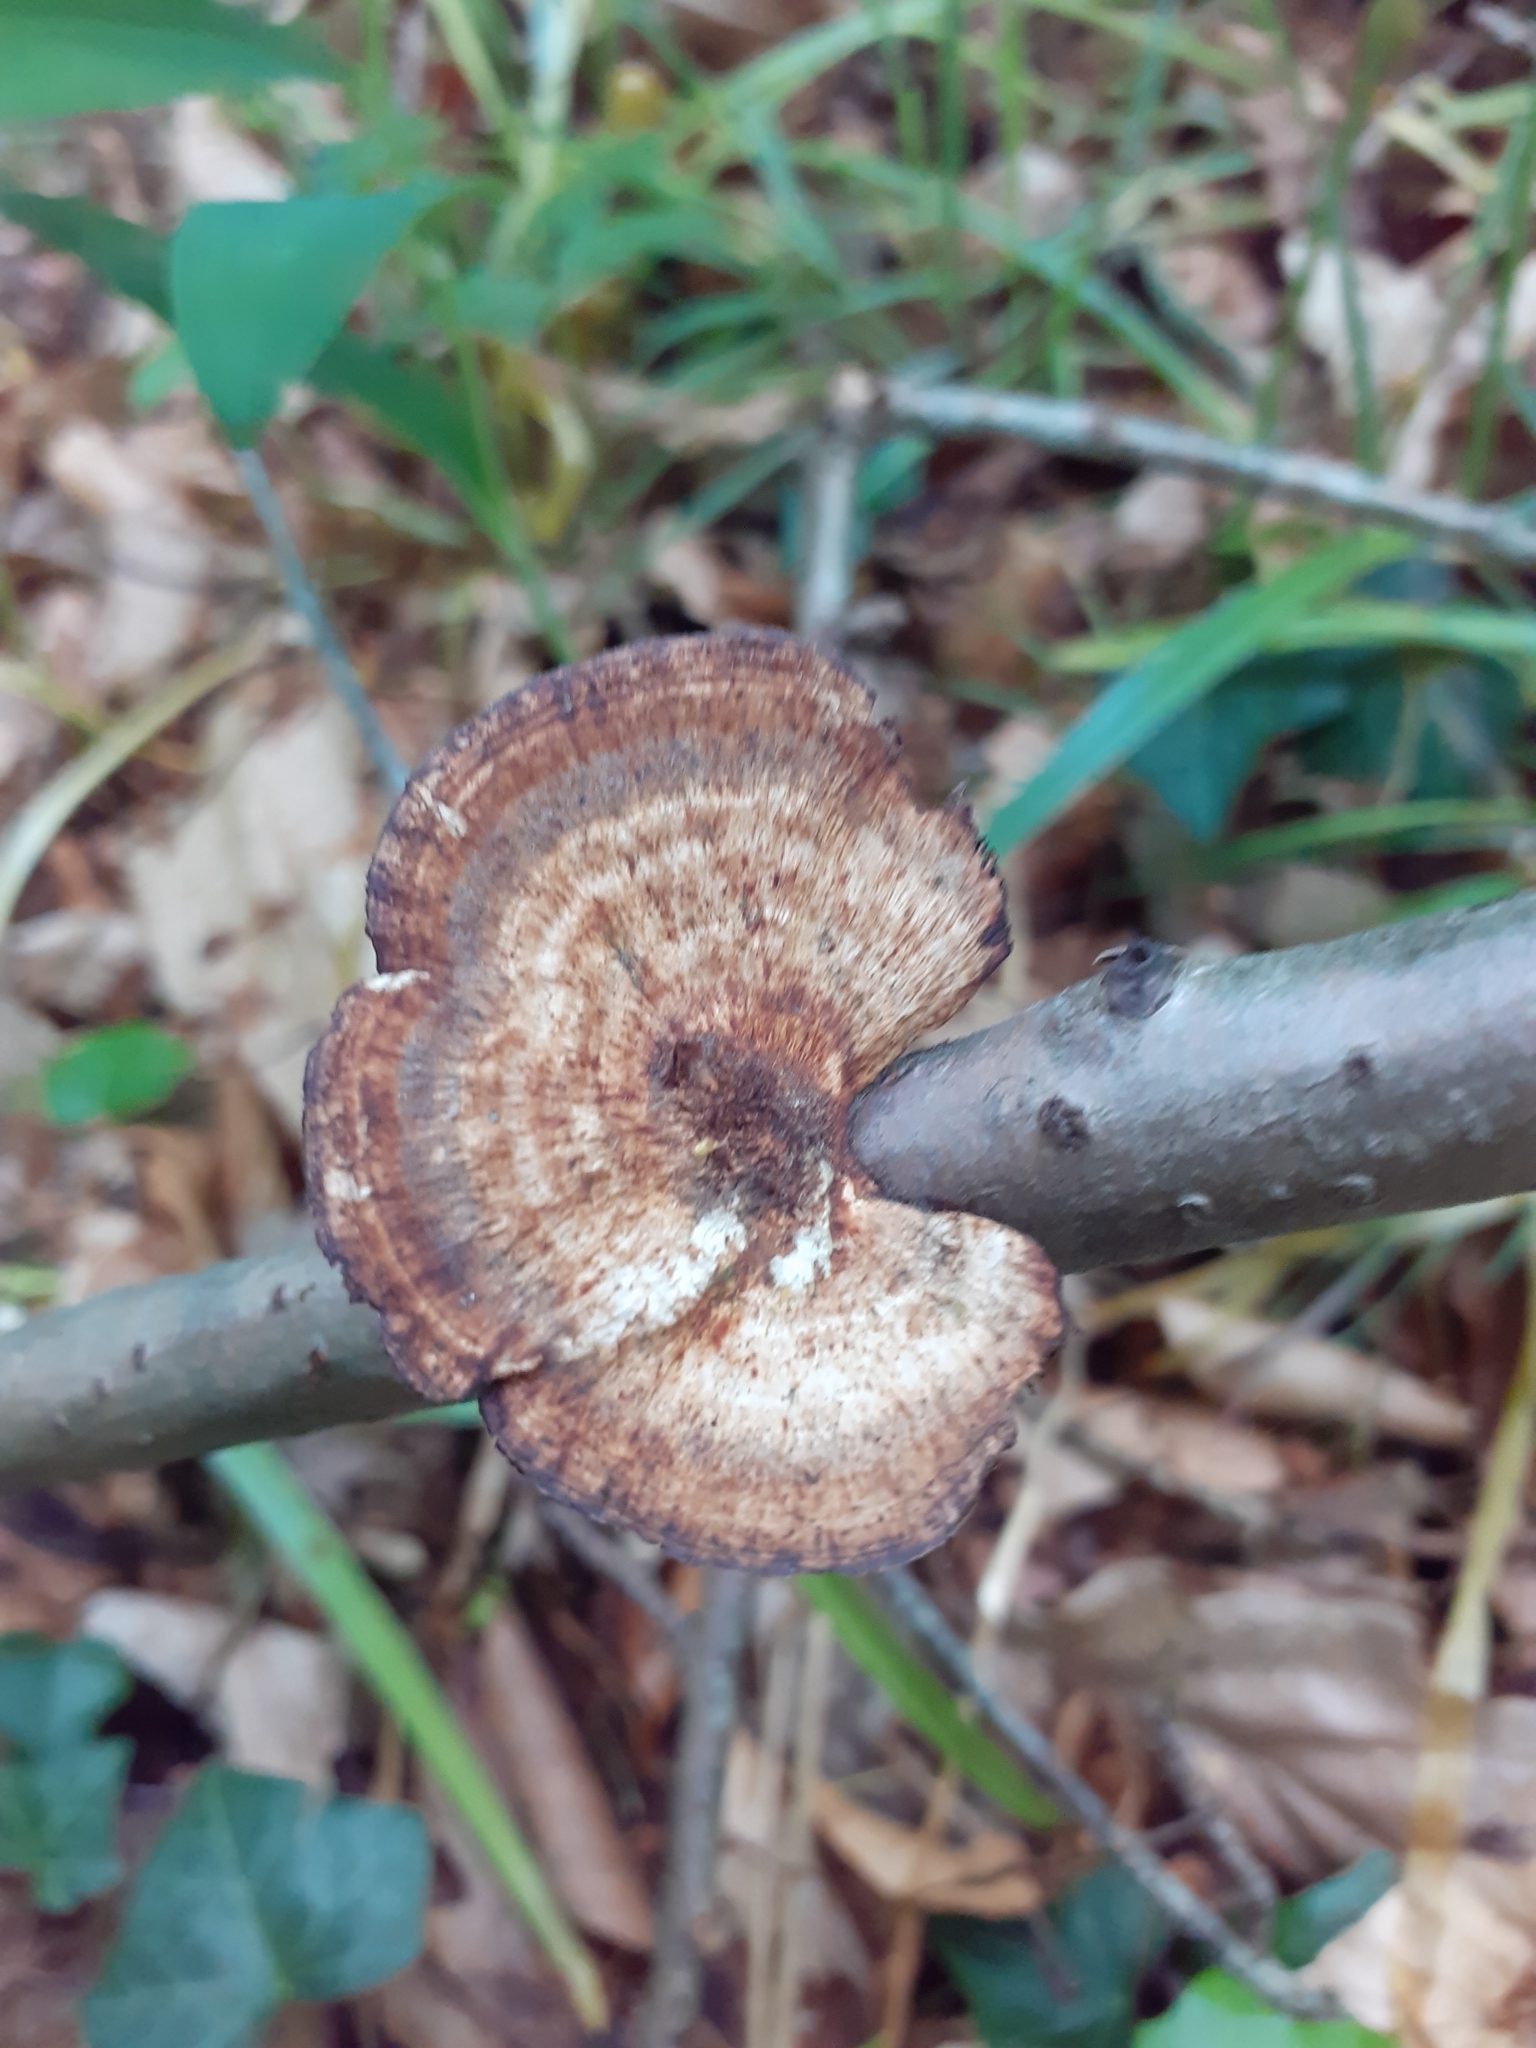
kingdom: Fungi
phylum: Basidiomycota
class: Agaricomycetes
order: Polyporales
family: Polyporaceae
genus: Daedaleopsis
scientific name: Daedaleopsis confragosa
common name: Blushing bracket
